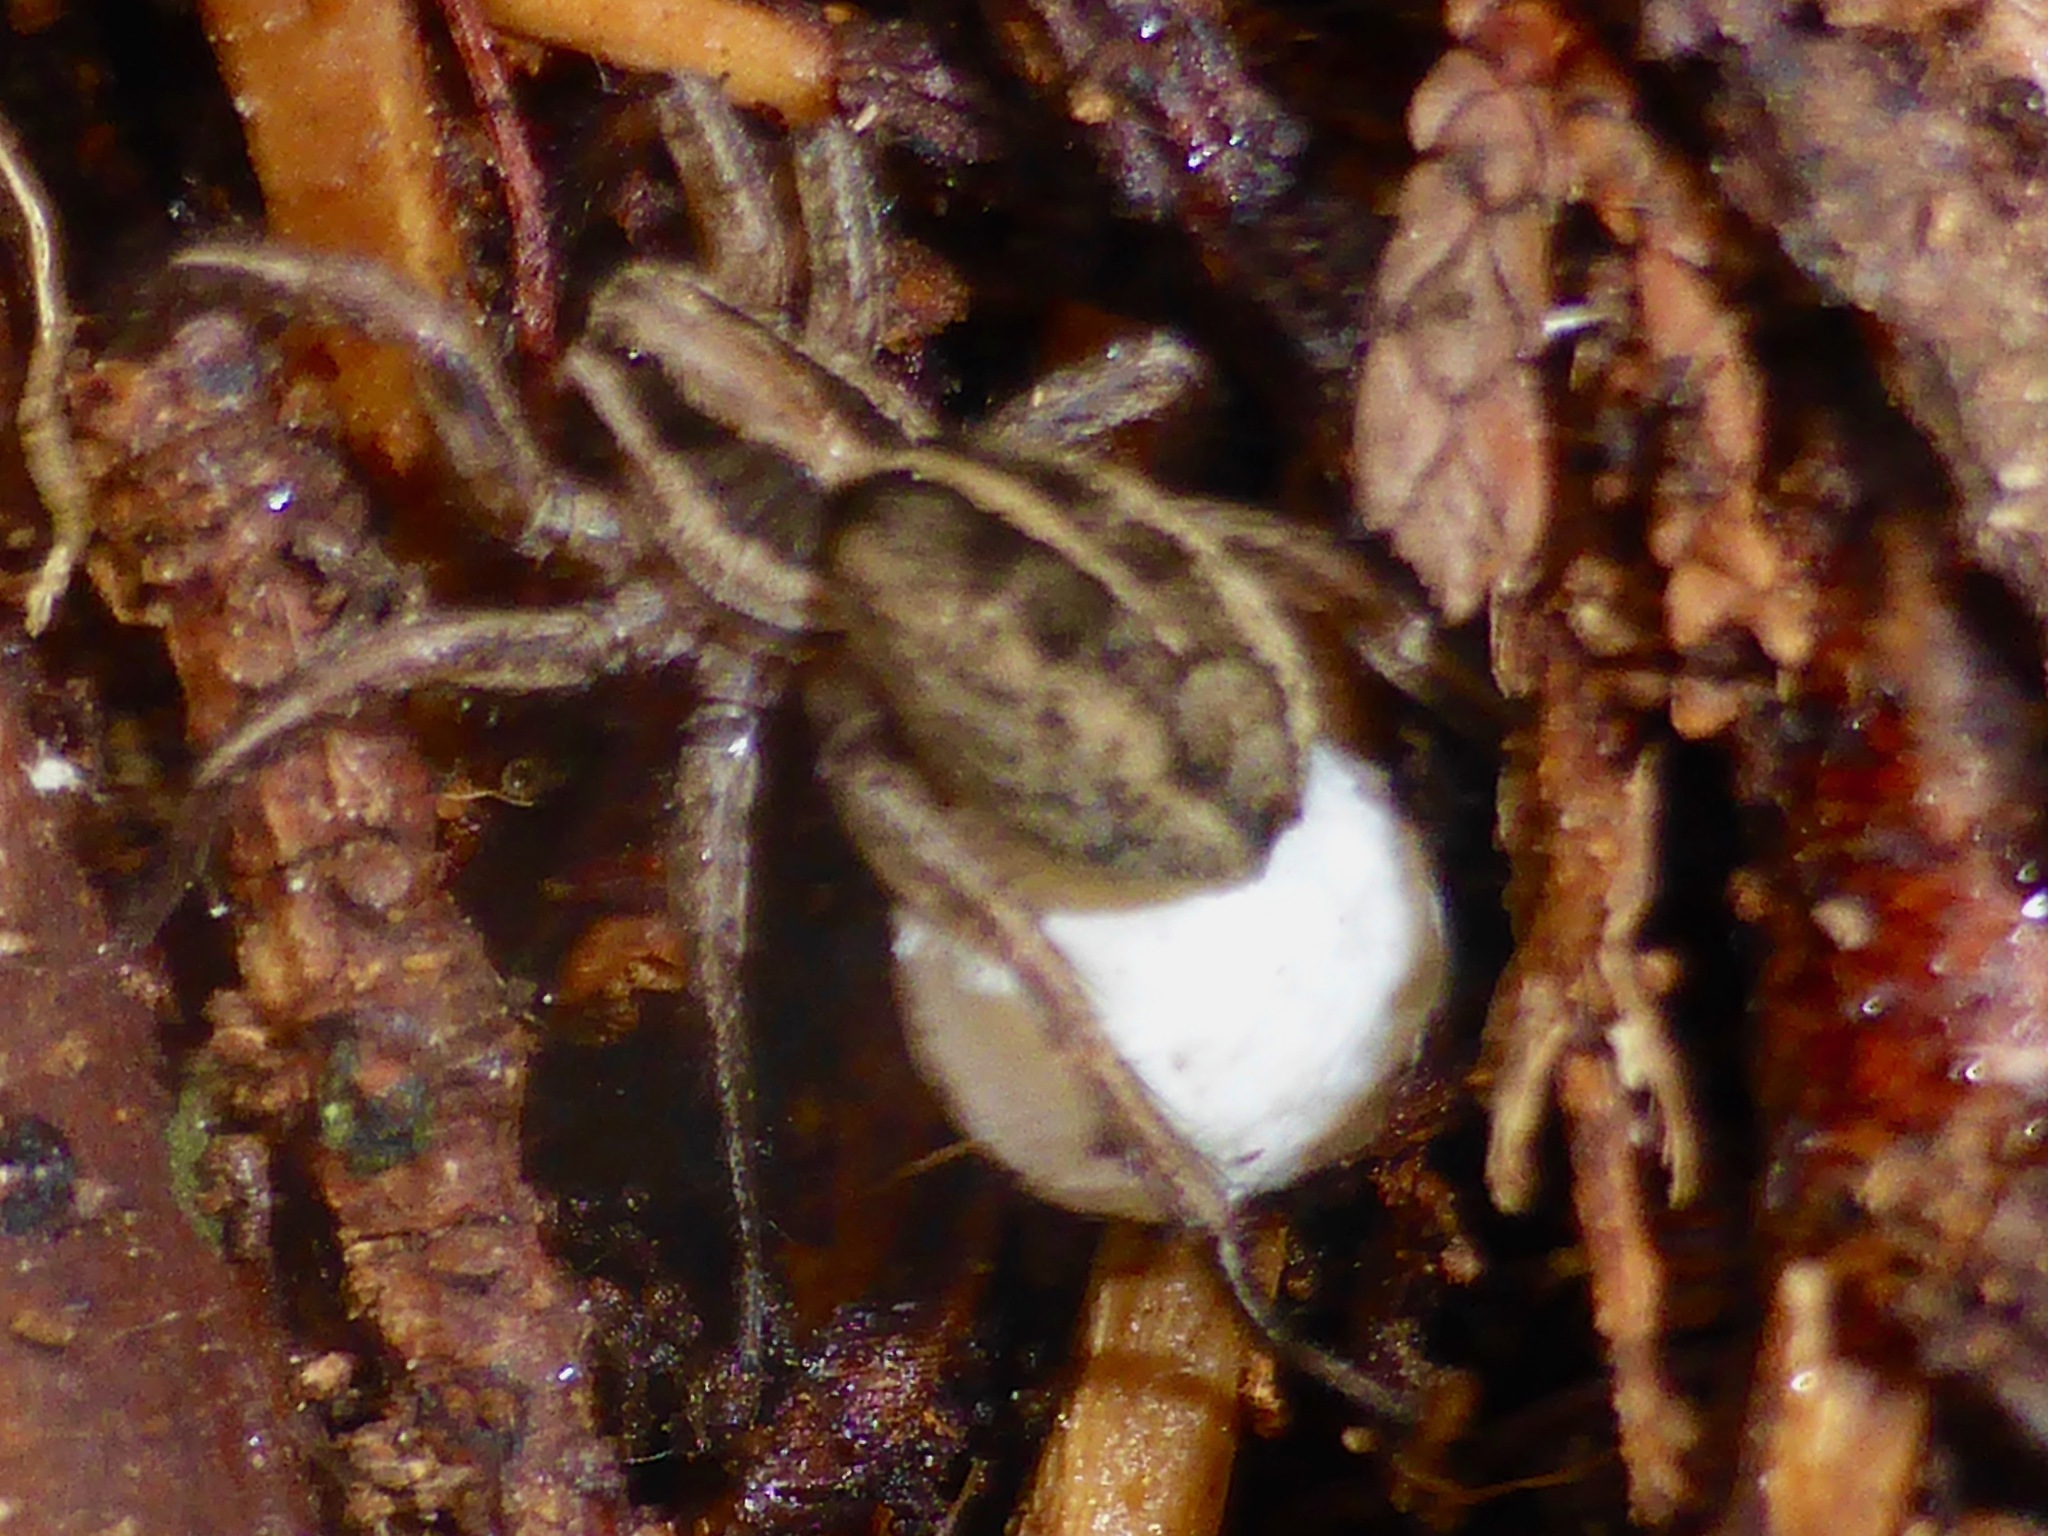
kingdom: Animalia
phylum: Arthropoda
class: Arachnida
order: Araneae
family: Lycosidae
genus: Anoteropsis
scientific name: Anoteropsis hilaris
